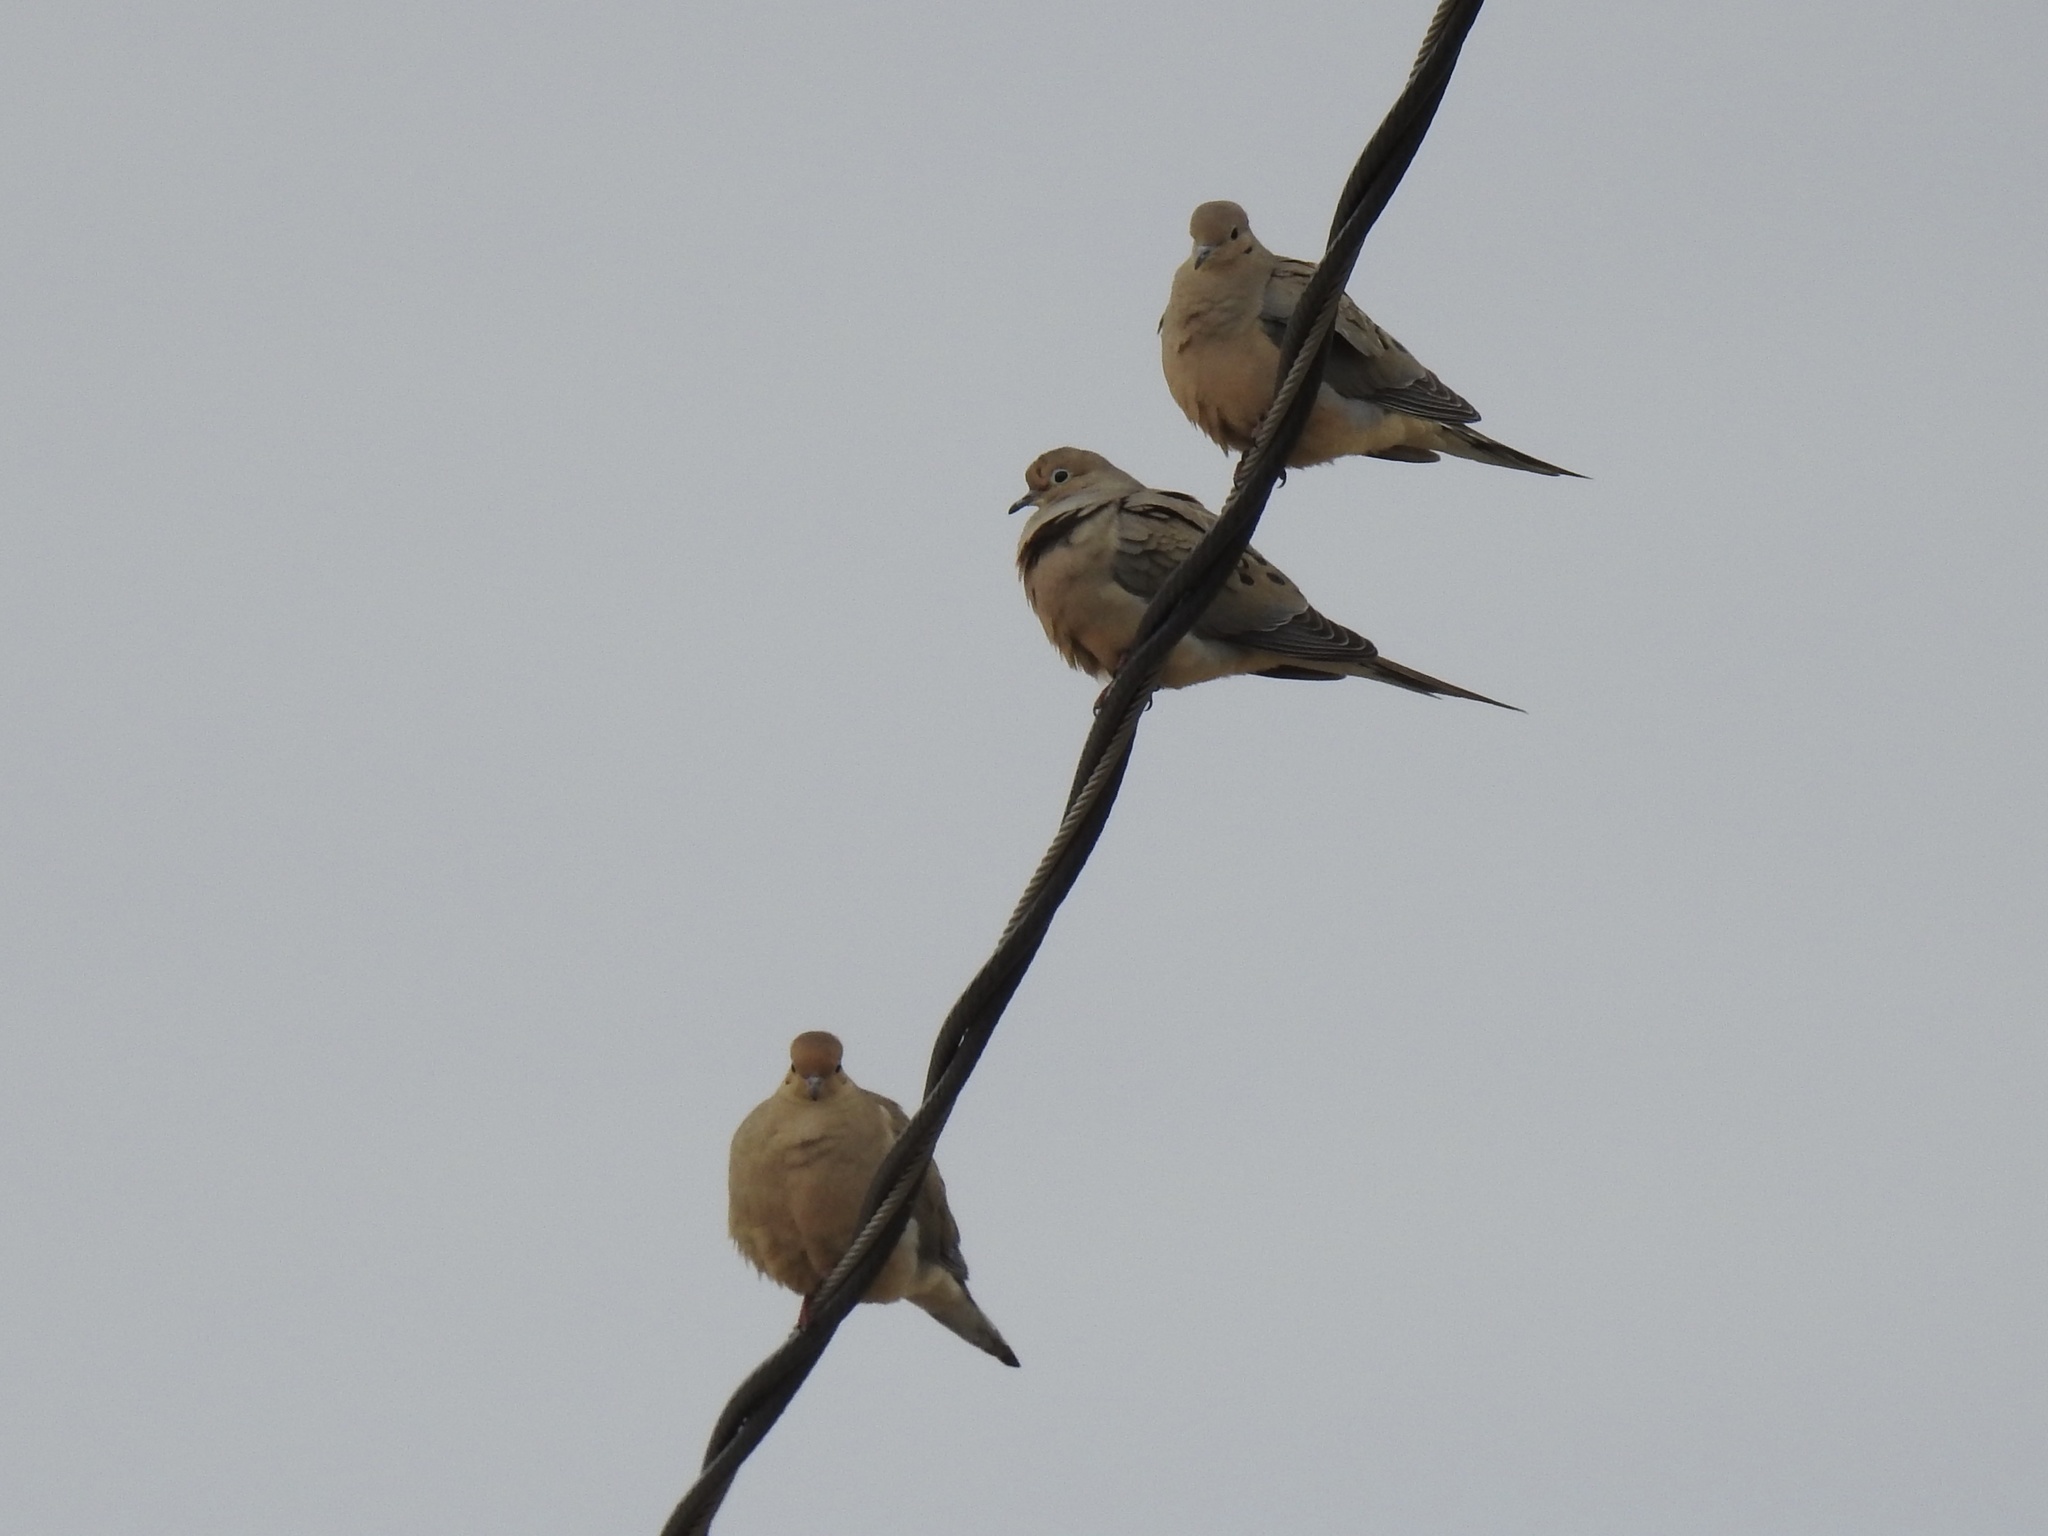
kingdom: Animalia
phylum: Chordata
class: Aves
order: Columbiformes
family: Columbidae
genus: Zenaida
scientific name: Zenaida macroura
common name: Mourning dove
